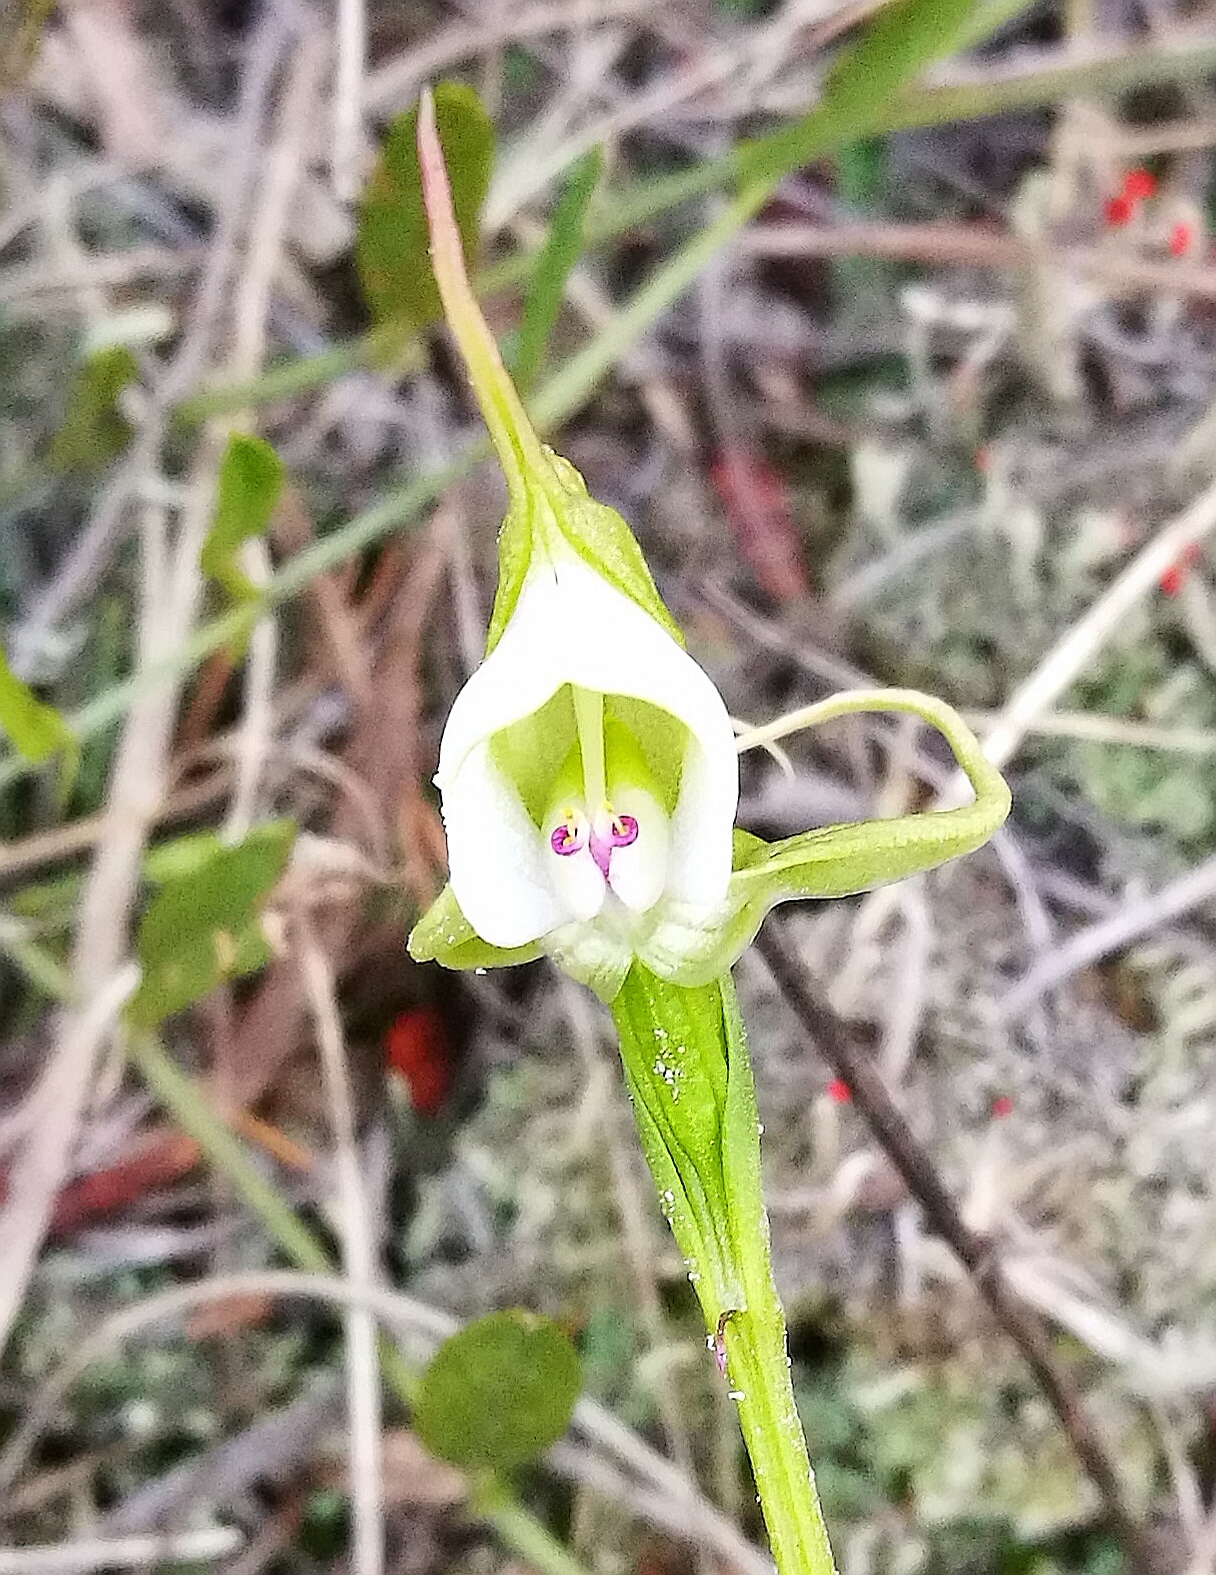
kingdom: Plantae
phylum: Tracheophyta
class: Liliopsida
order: Asparagales
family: Orchidaceae
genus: Disperis
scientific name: Disperis capensis
